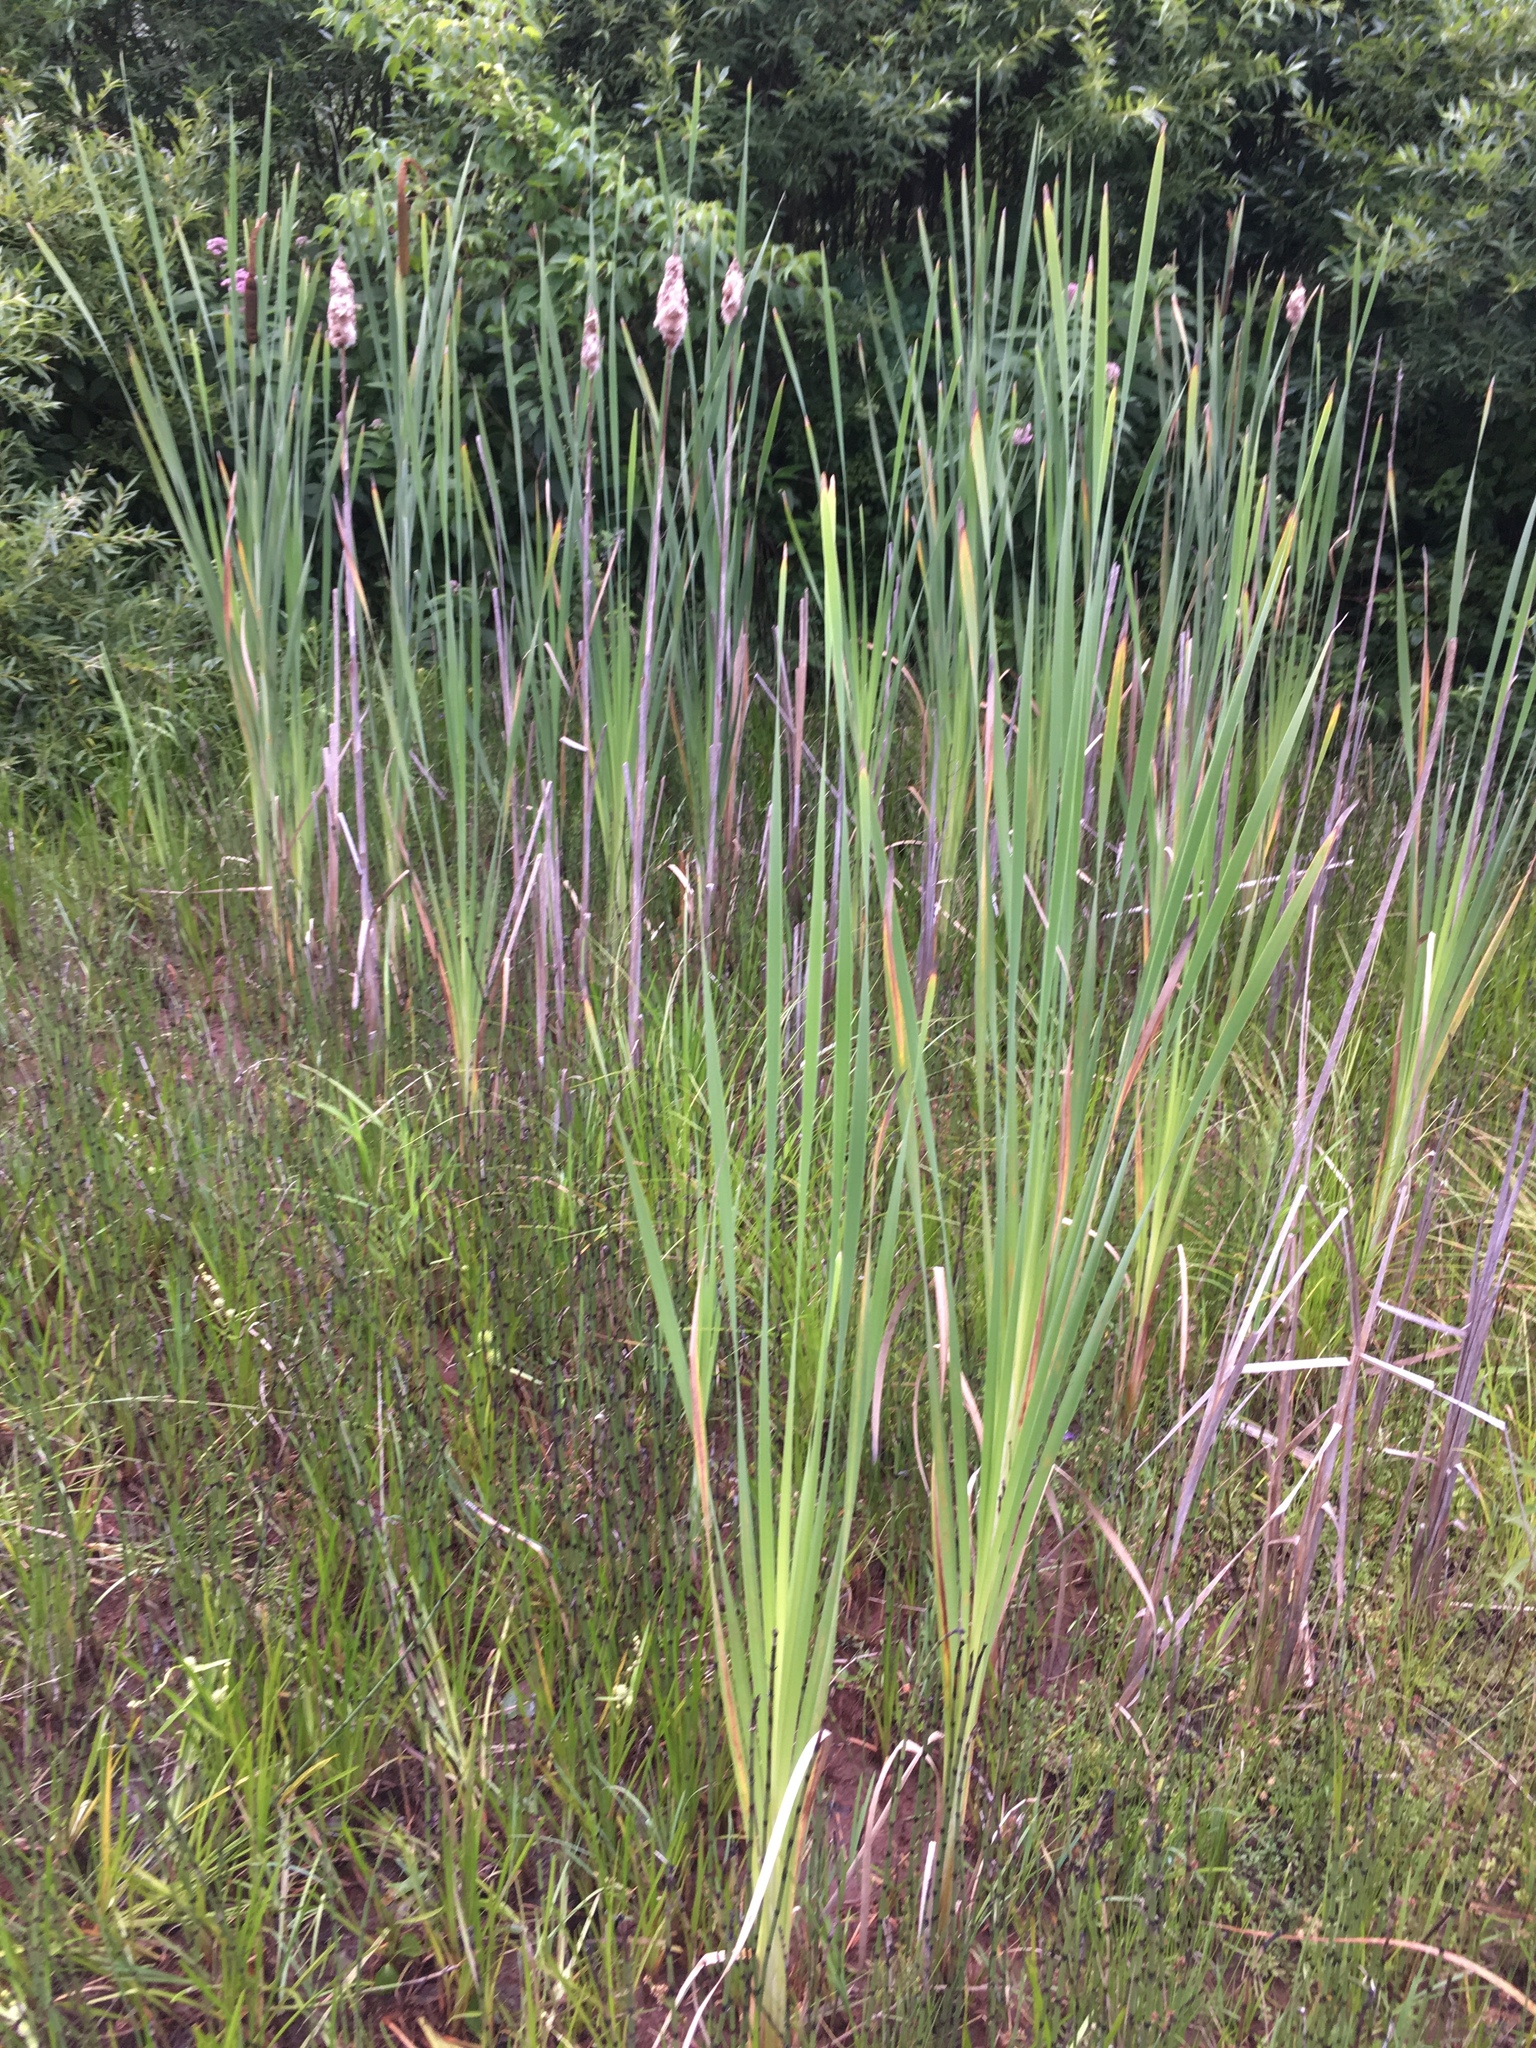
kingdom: Plantae
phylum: Tracheophyta
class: Liliopsida
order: Poales
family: Typhaceae
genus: Typha
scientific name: Typha latifolia
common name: Broadleaf cattail
